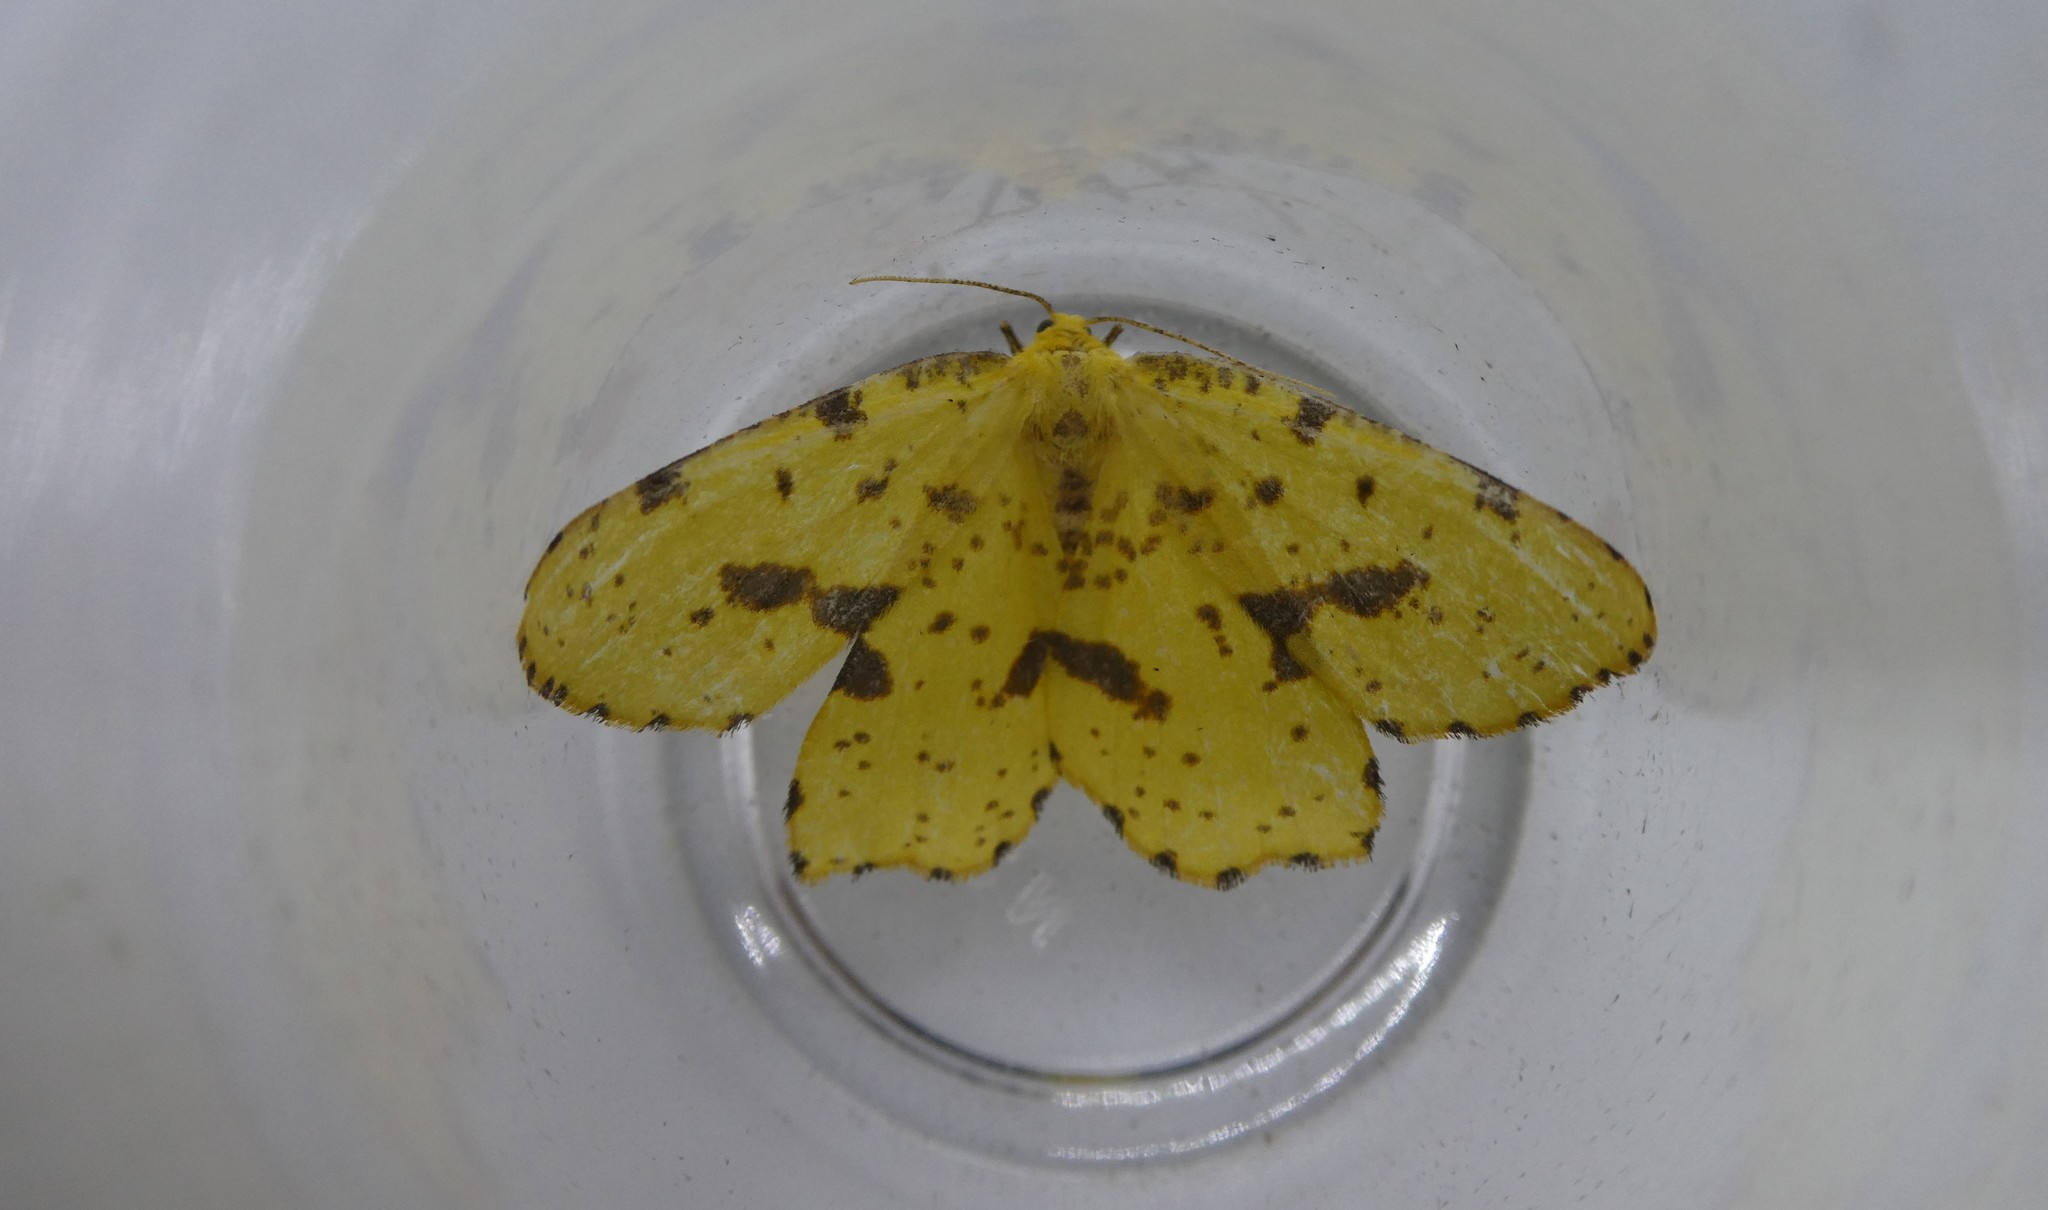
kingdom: Animalia
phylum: Arthropoda
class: Insecta
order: Lepidoptera
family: Geometridae
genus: Xanthotype
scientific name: Xanthotype
